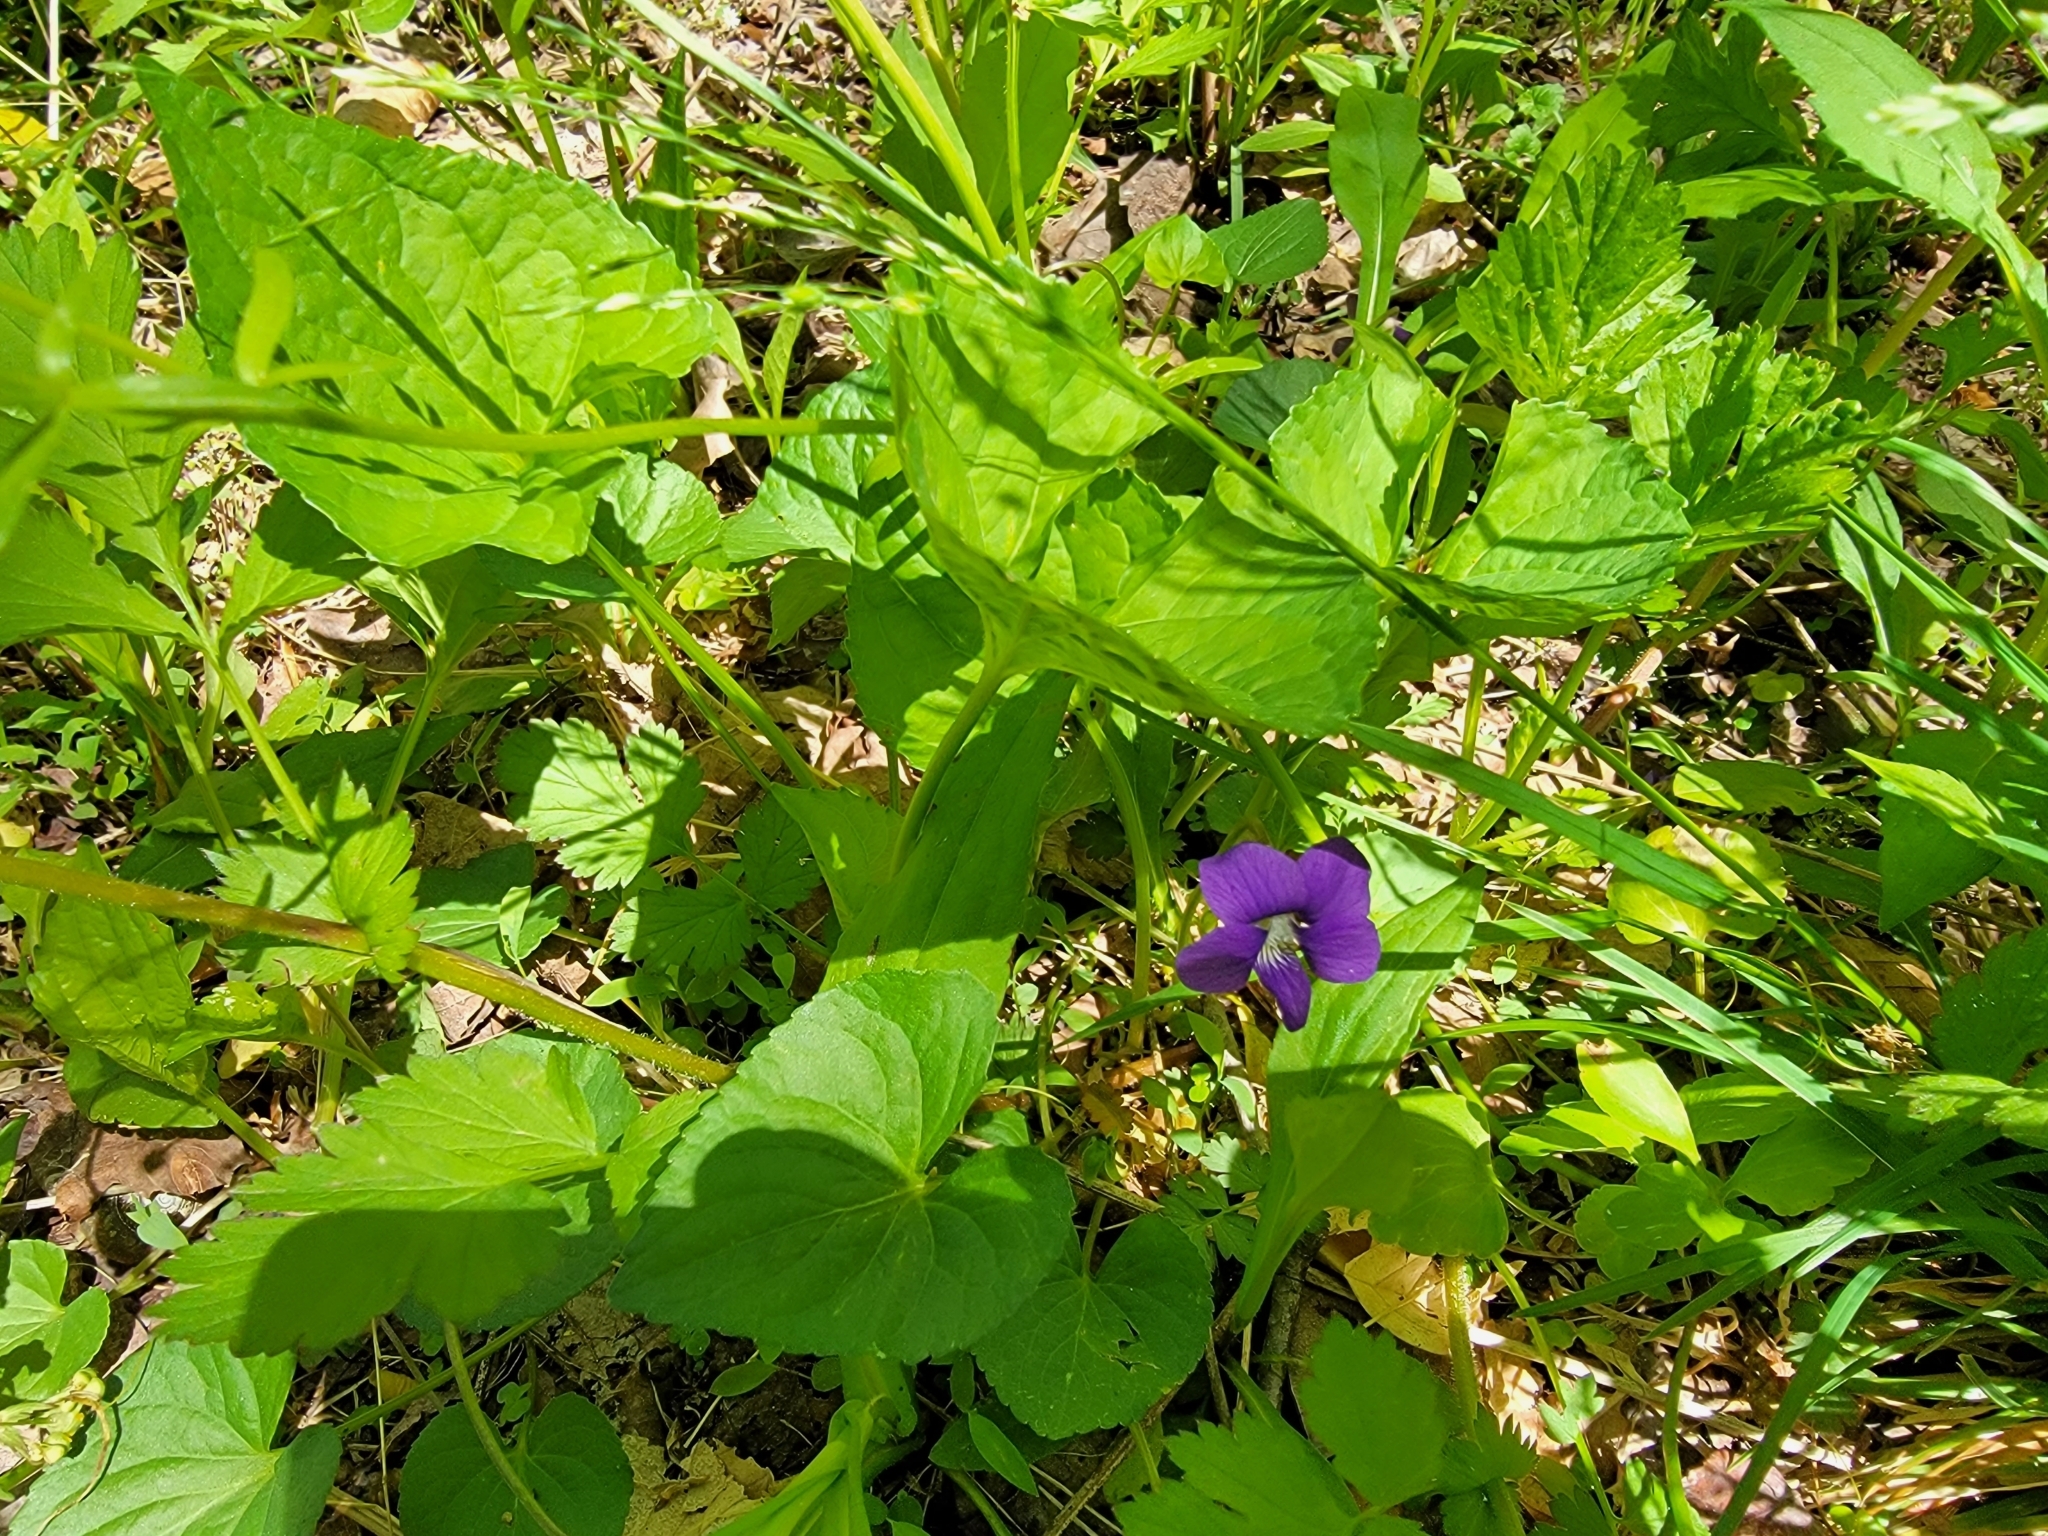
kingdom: Plantae
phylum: Tracheophyta
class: Magnoliopsida
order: Malpighiales
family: Violaceae
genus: Viola
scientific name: Viola sororia
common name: Dooryard violet
